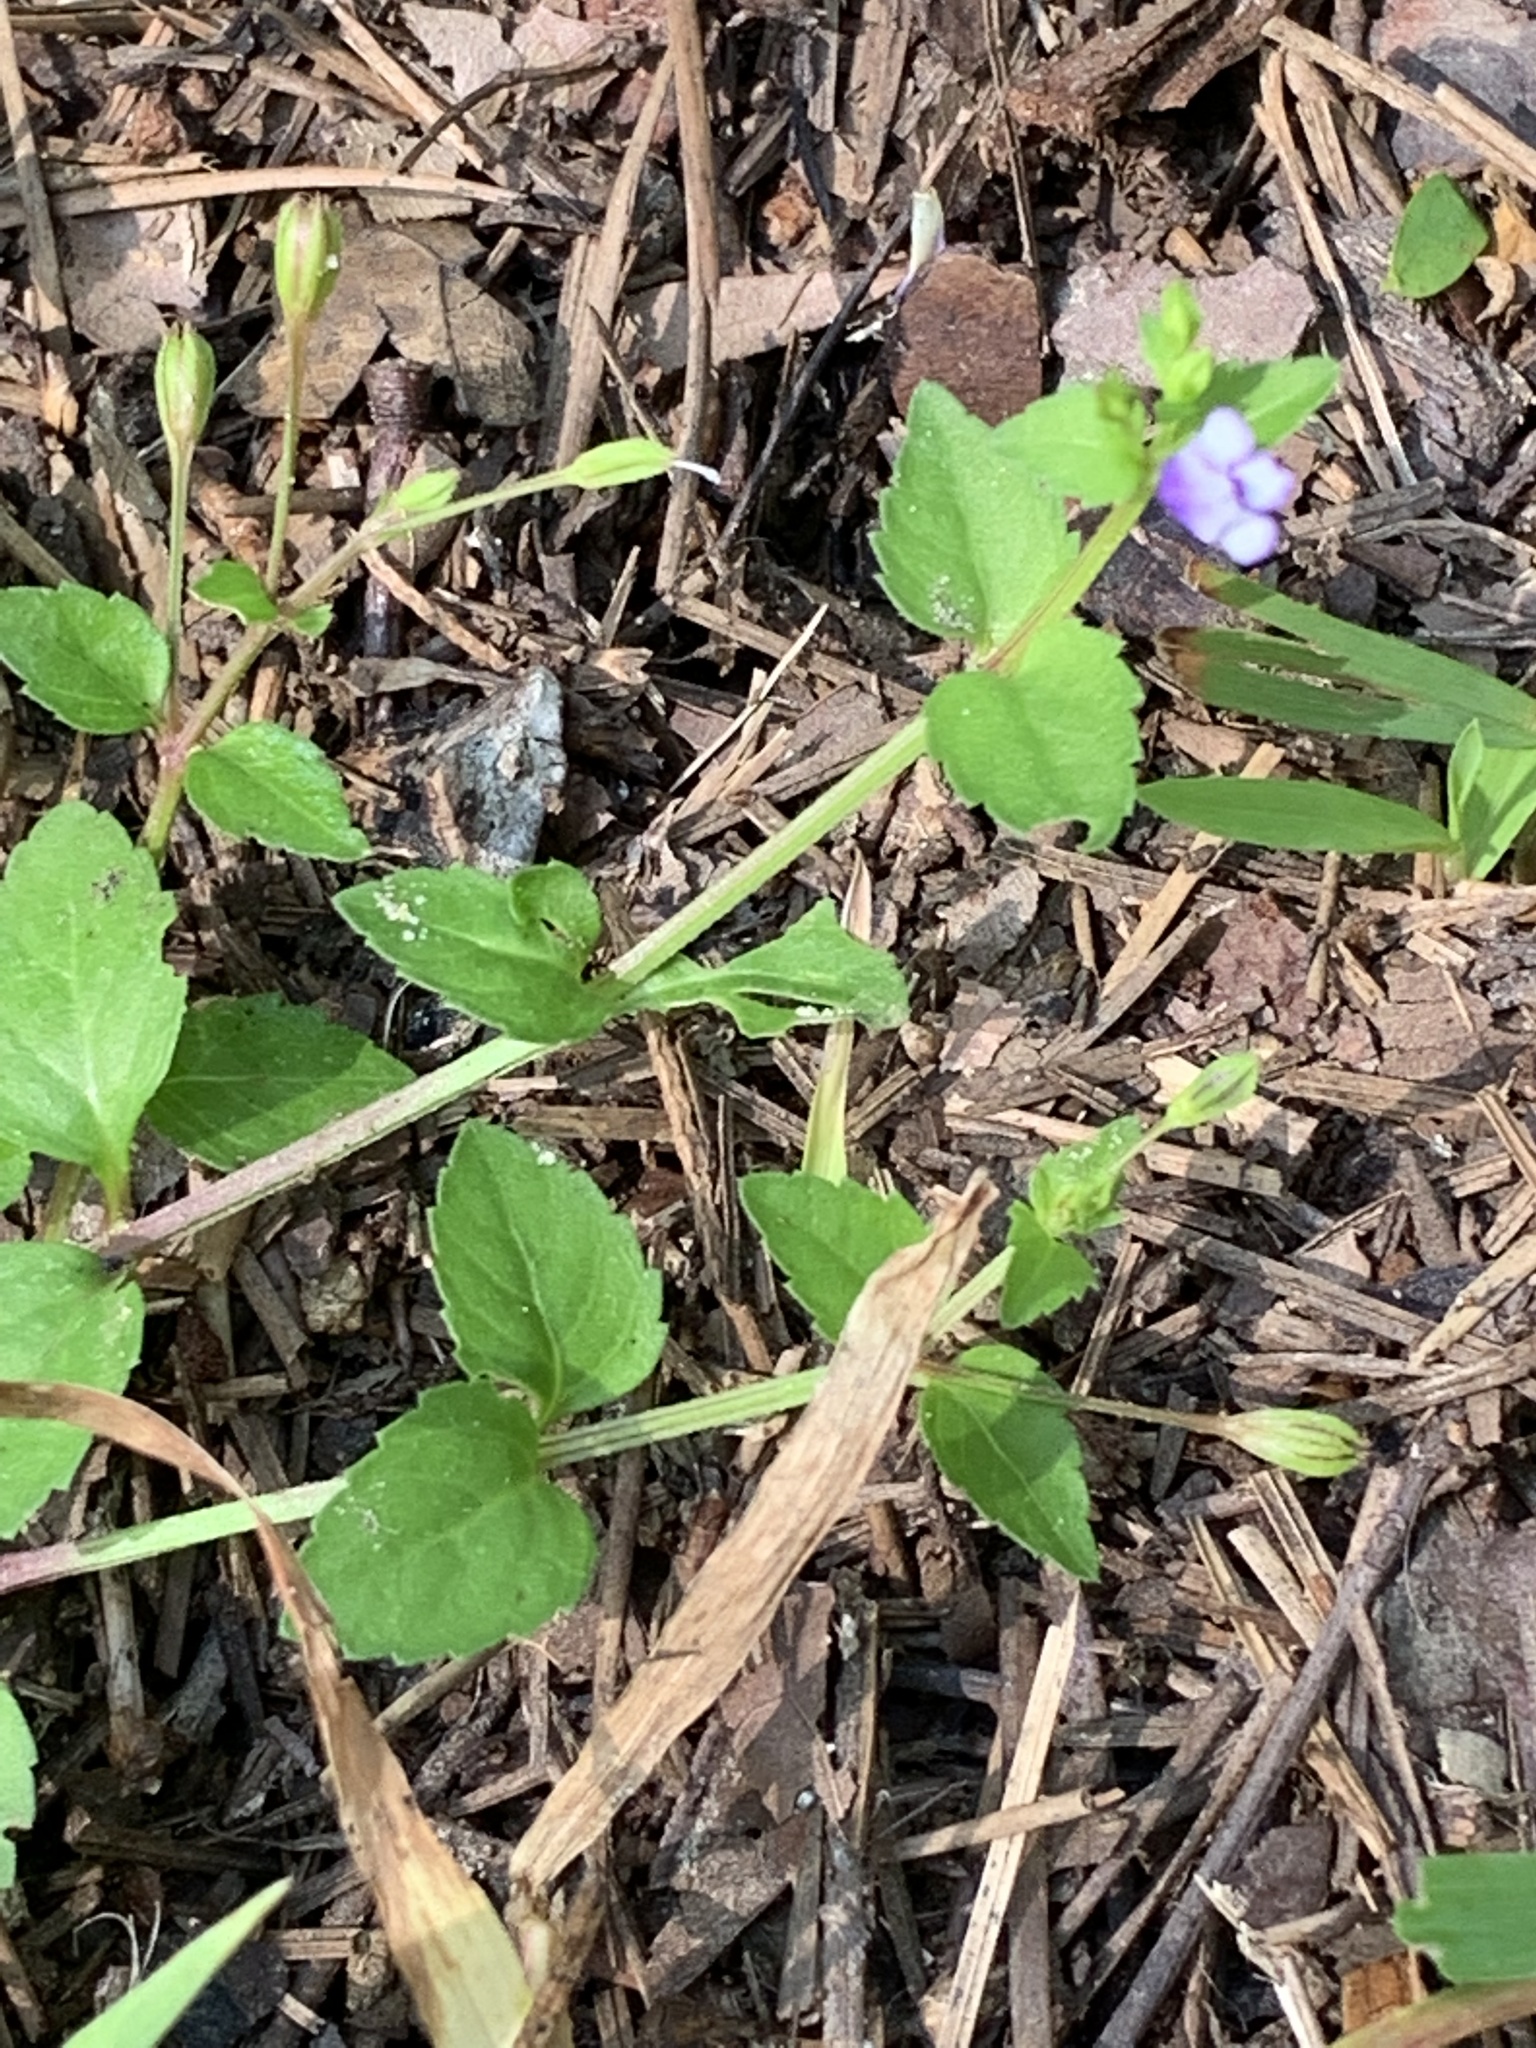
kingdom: Plantae
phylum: Tracheophyta
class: Magnoliopsida
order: Lamiales
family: Linderniaceae
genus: Torenia
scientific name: Torenia crustacea
